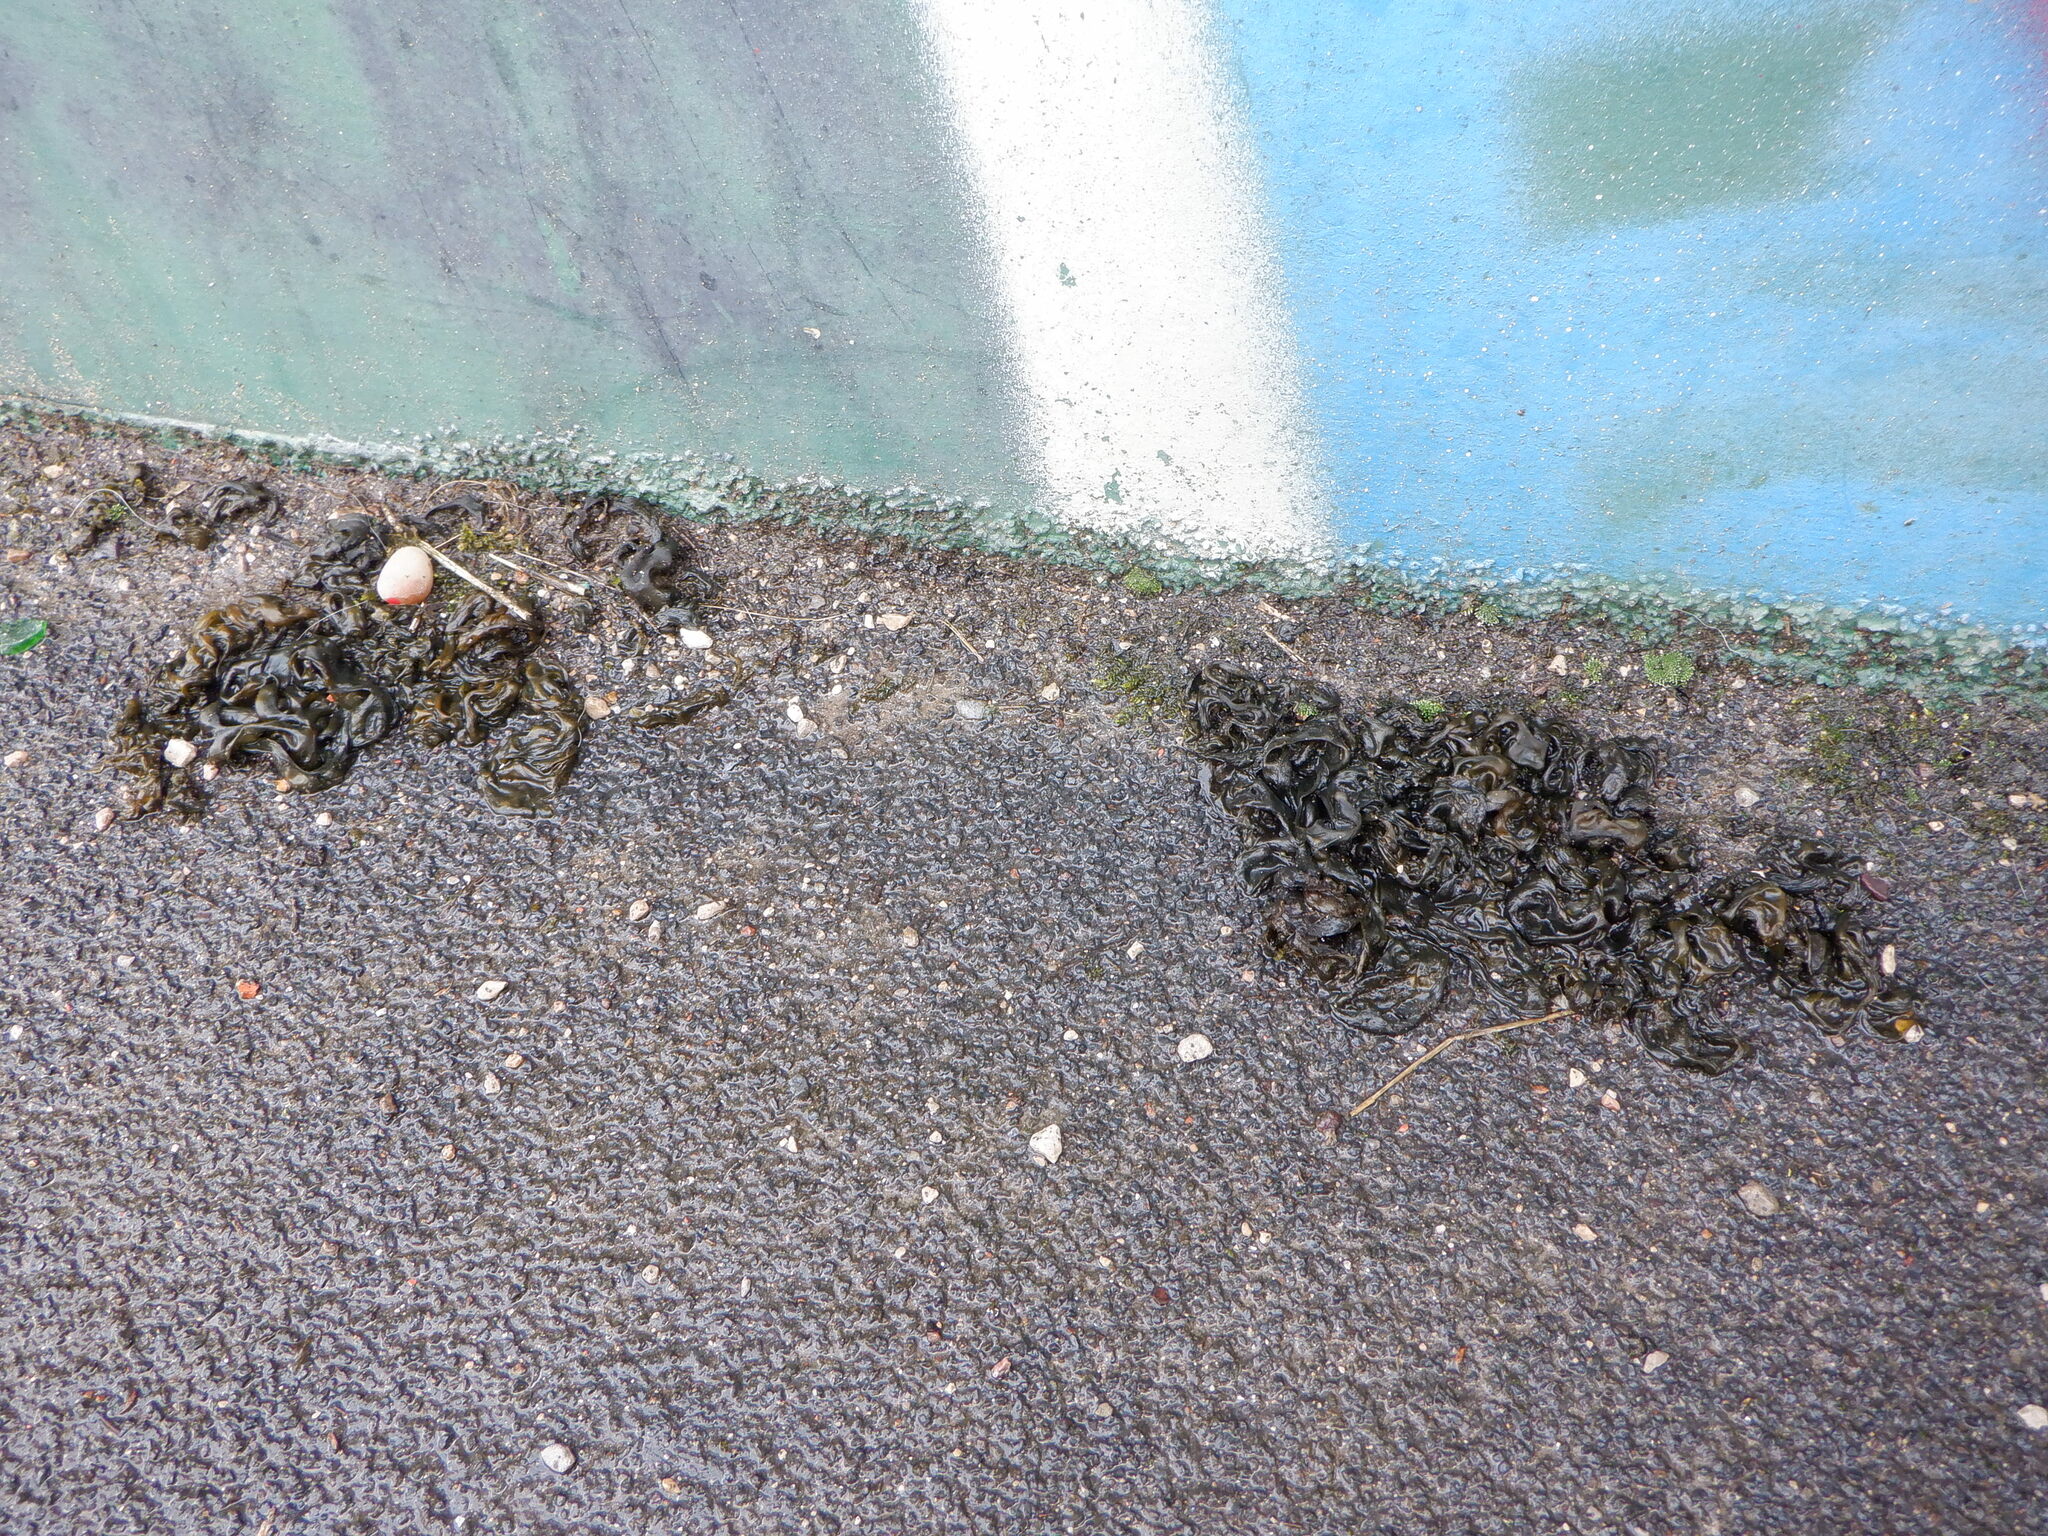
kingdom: Bacteria
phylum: Cyanobacteria
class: Cyanobacteriia
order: Cyanobacteriales
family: Nostocaceae
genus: Nostoc
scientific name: Nostoc commune
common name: Star jelly
